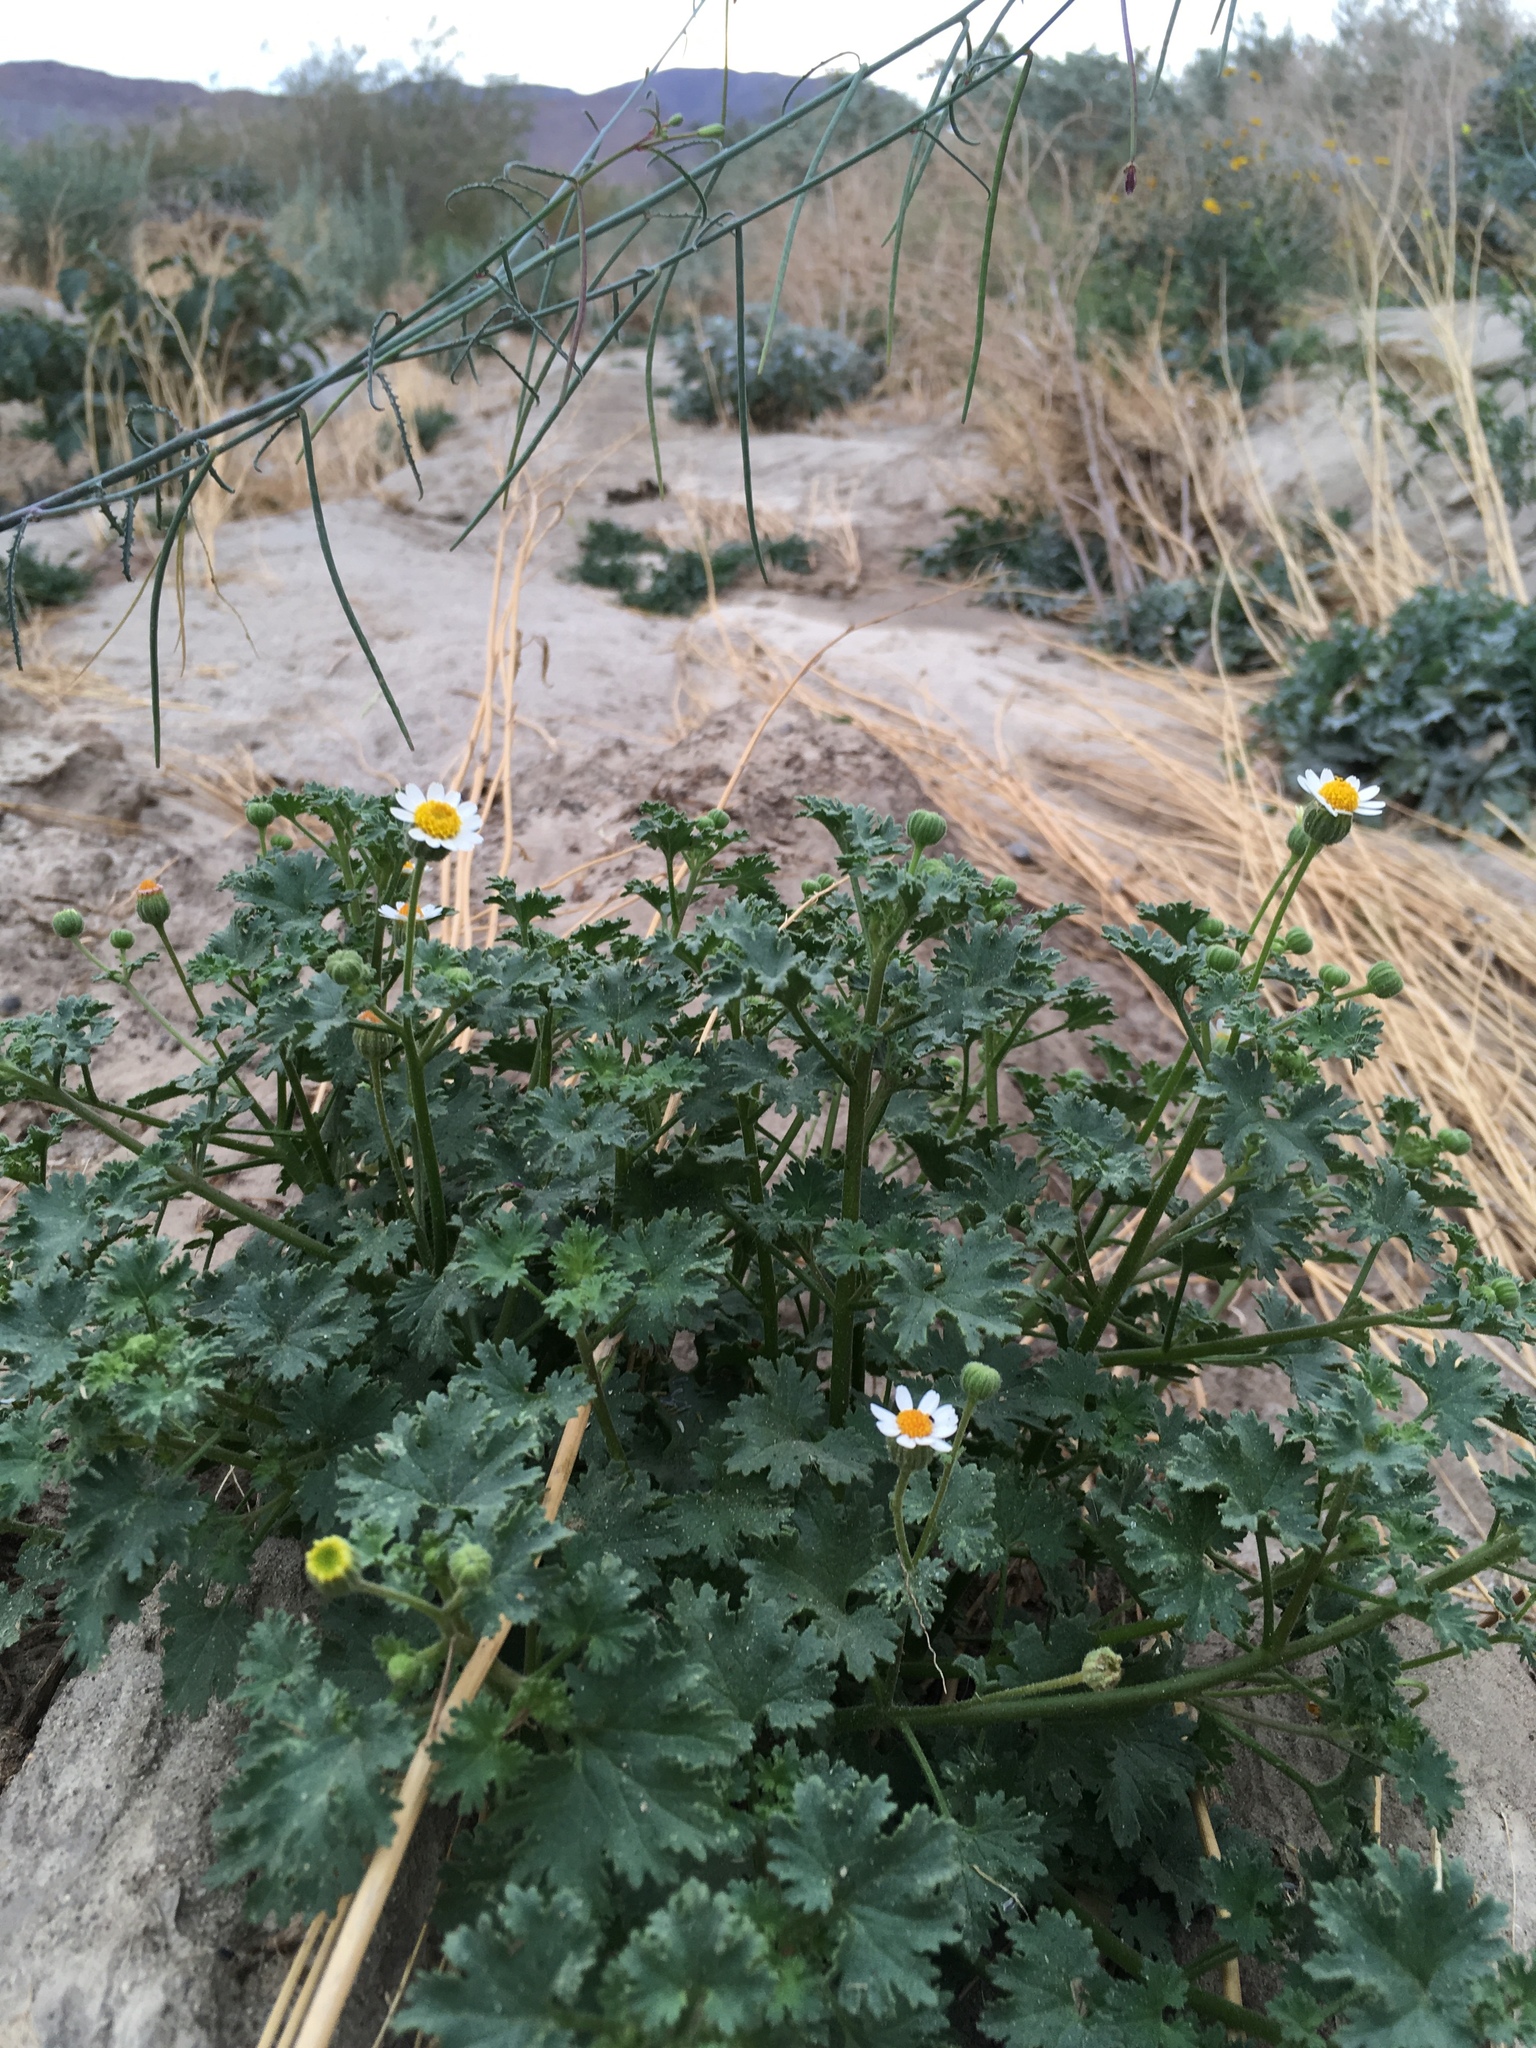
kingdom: Plantae
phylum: Tracheophyta
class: Magnoliopsida
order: Asterales
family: Asteraceae
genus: Laphamia
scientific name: Laphamia emoryi
